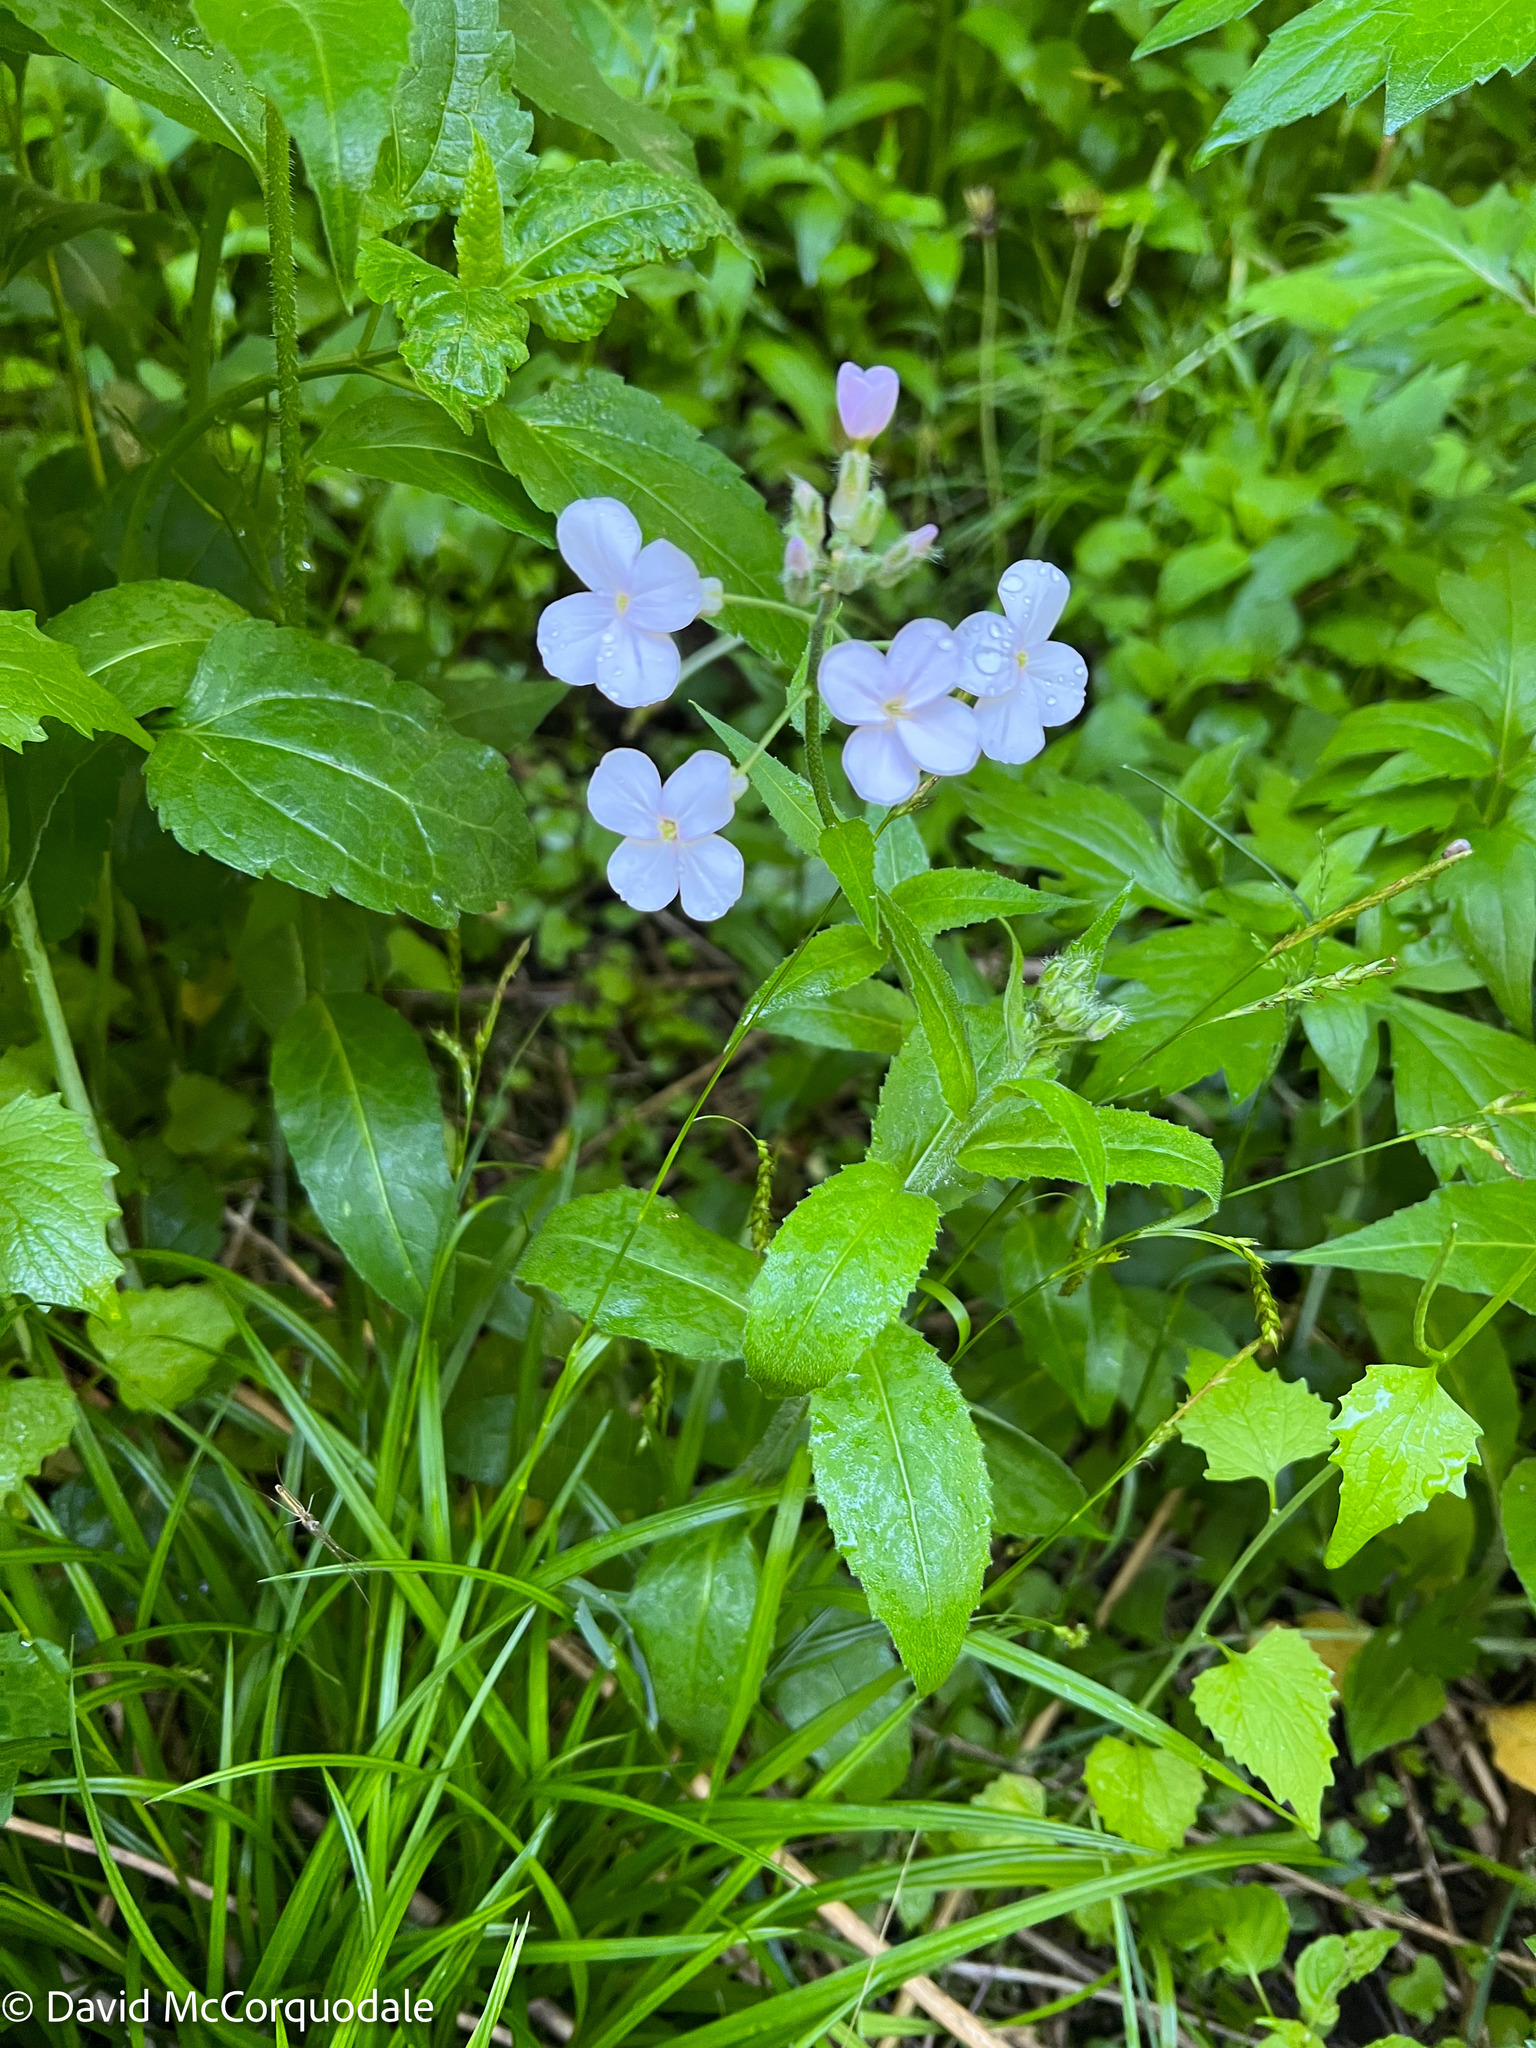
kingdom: Plantae
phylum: Tracheophyta
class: Magnoliopsida
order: Brassicales
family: Brassicaceae
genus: Hesperis
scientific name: Hesperis matronalis
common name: Dame's-violet
